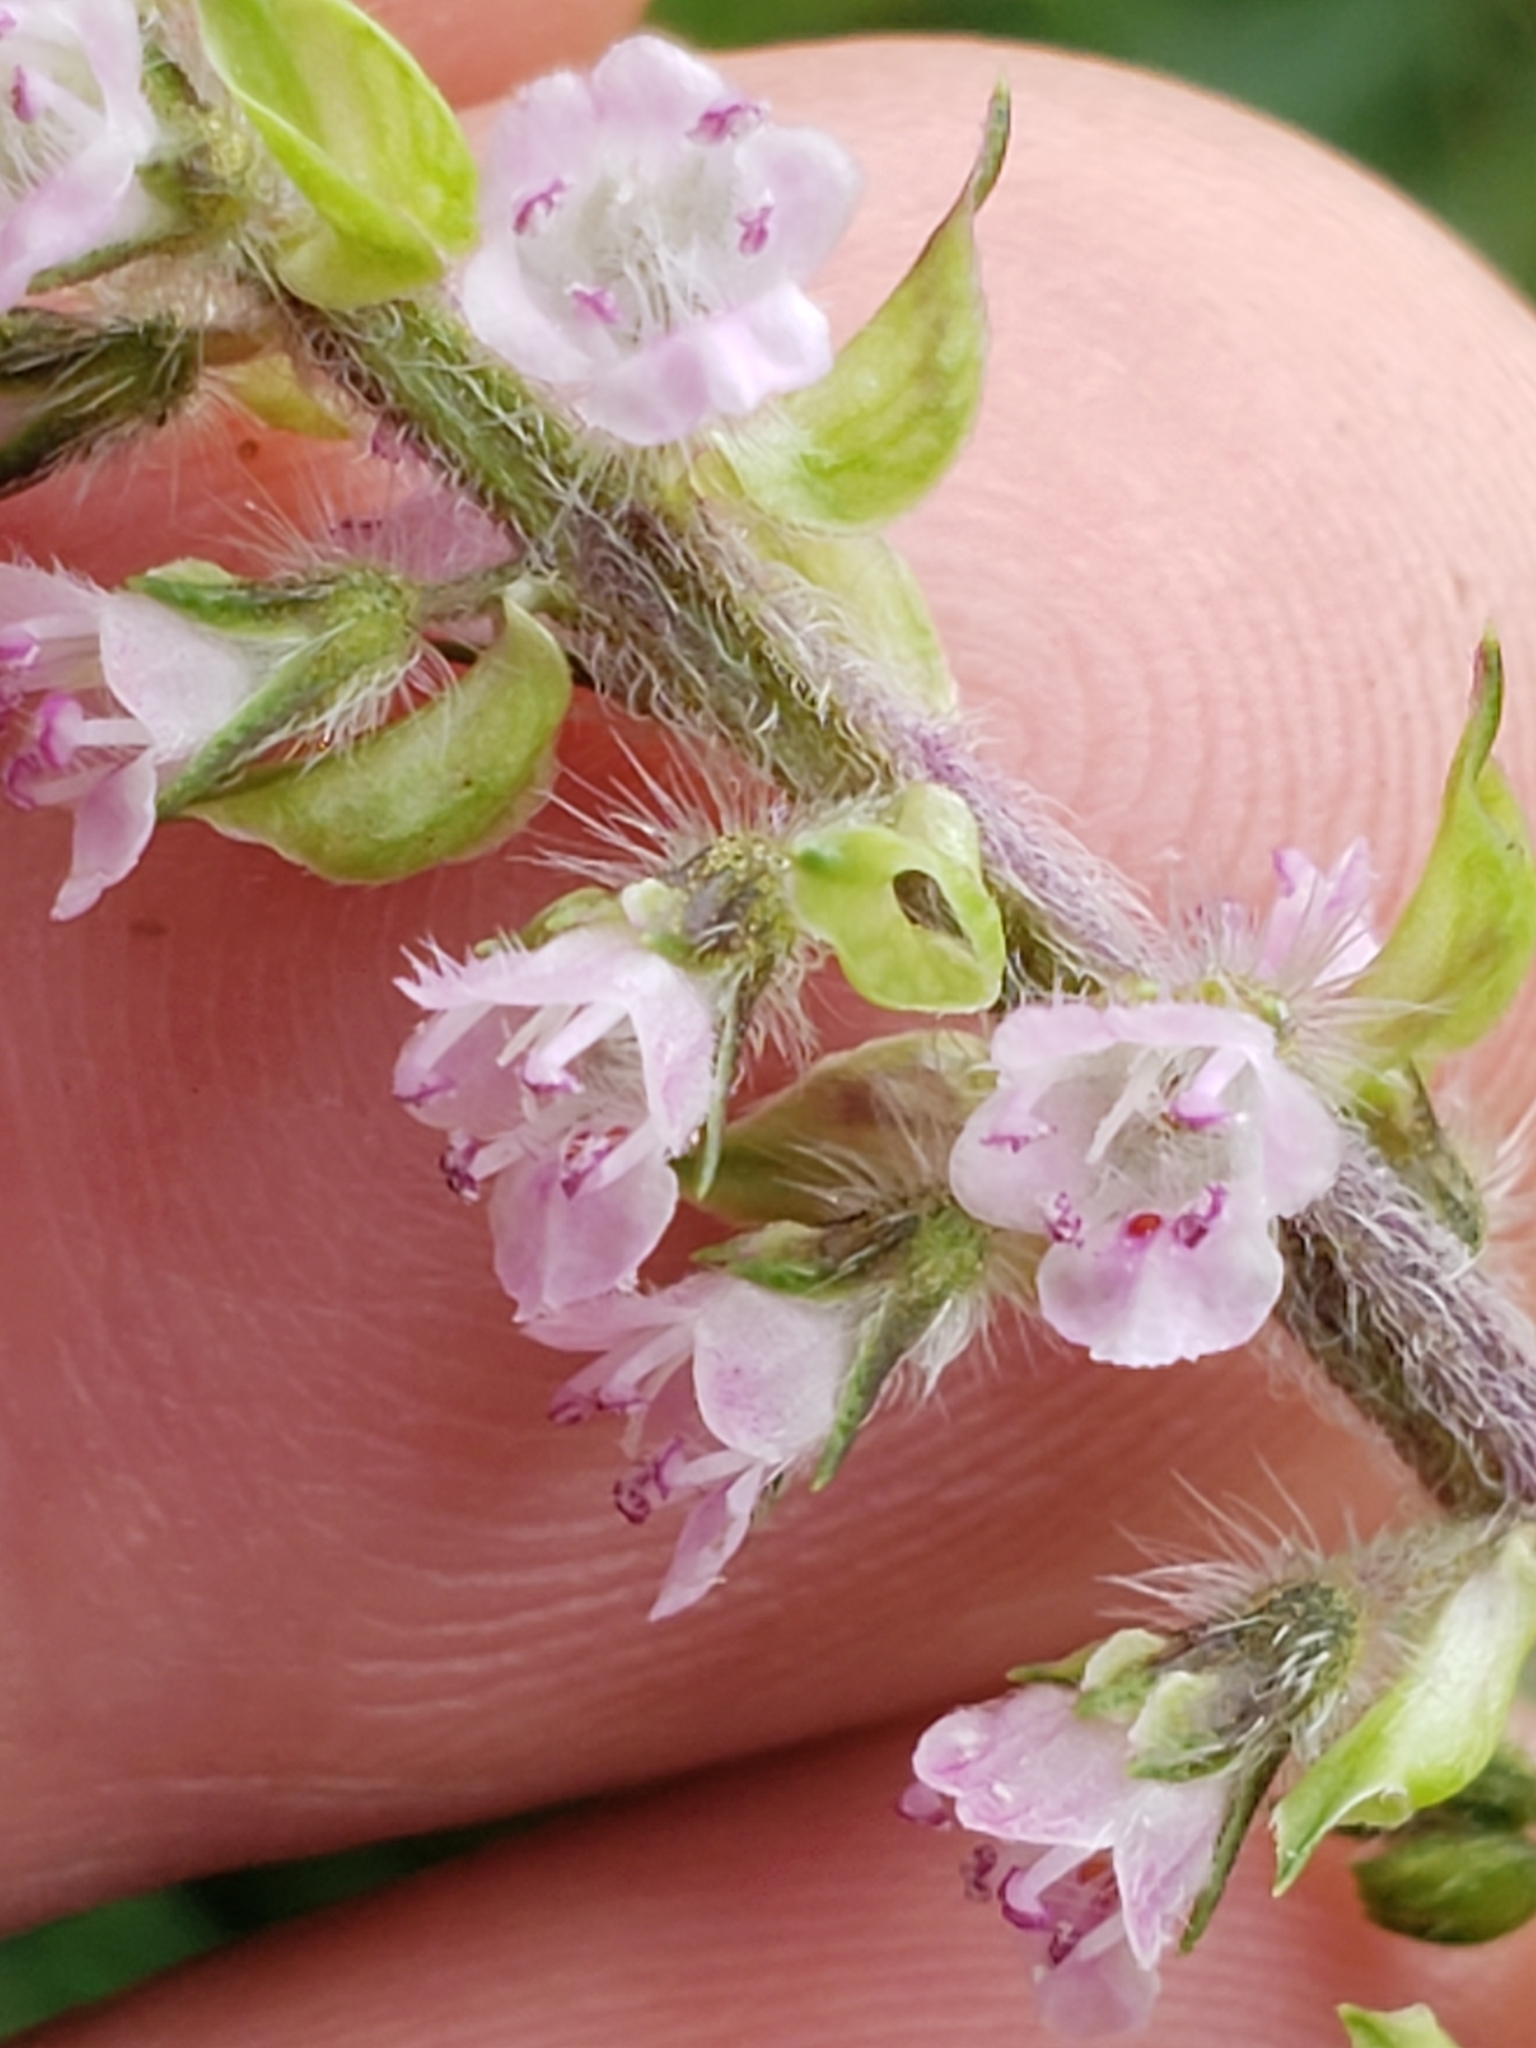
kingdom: Plantae
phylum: Tracheophyta
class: Magnoliopsida
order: Lamiales
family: Lamiaceae
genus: Perilla
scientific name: Perilla frutescens
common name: Perilla
